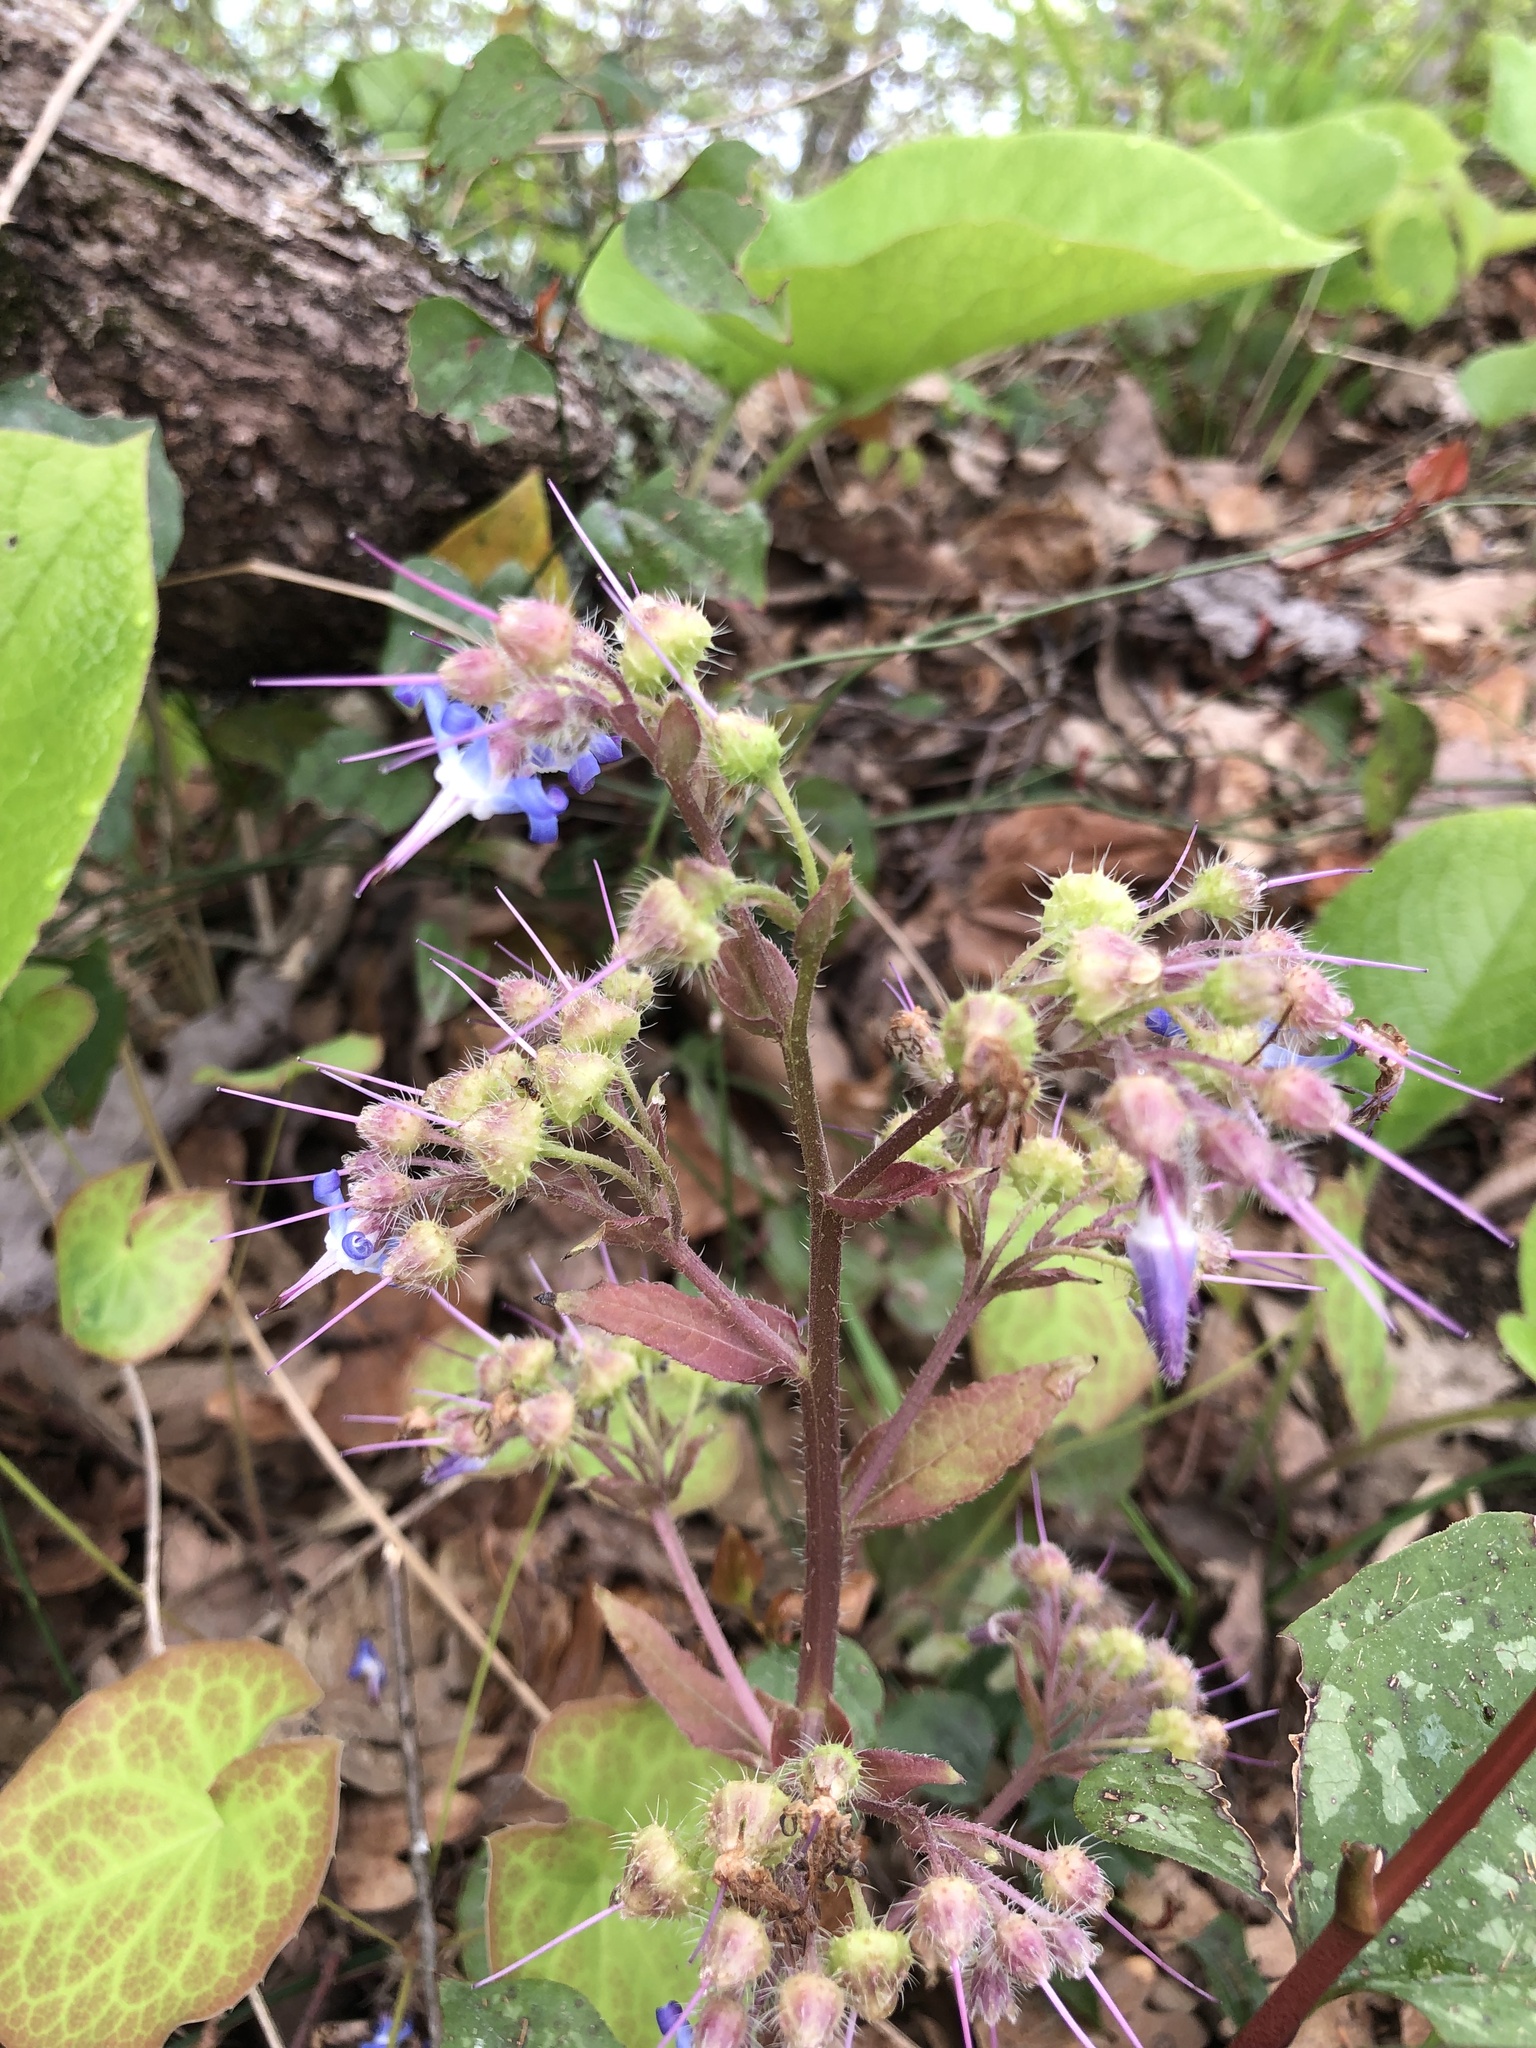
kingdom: Plantae
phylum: Tracheophyta
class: Magnoliopsida
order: Boraginales
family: Boraginaceae
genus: Trachystemon
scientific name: Trachystemon orientale
